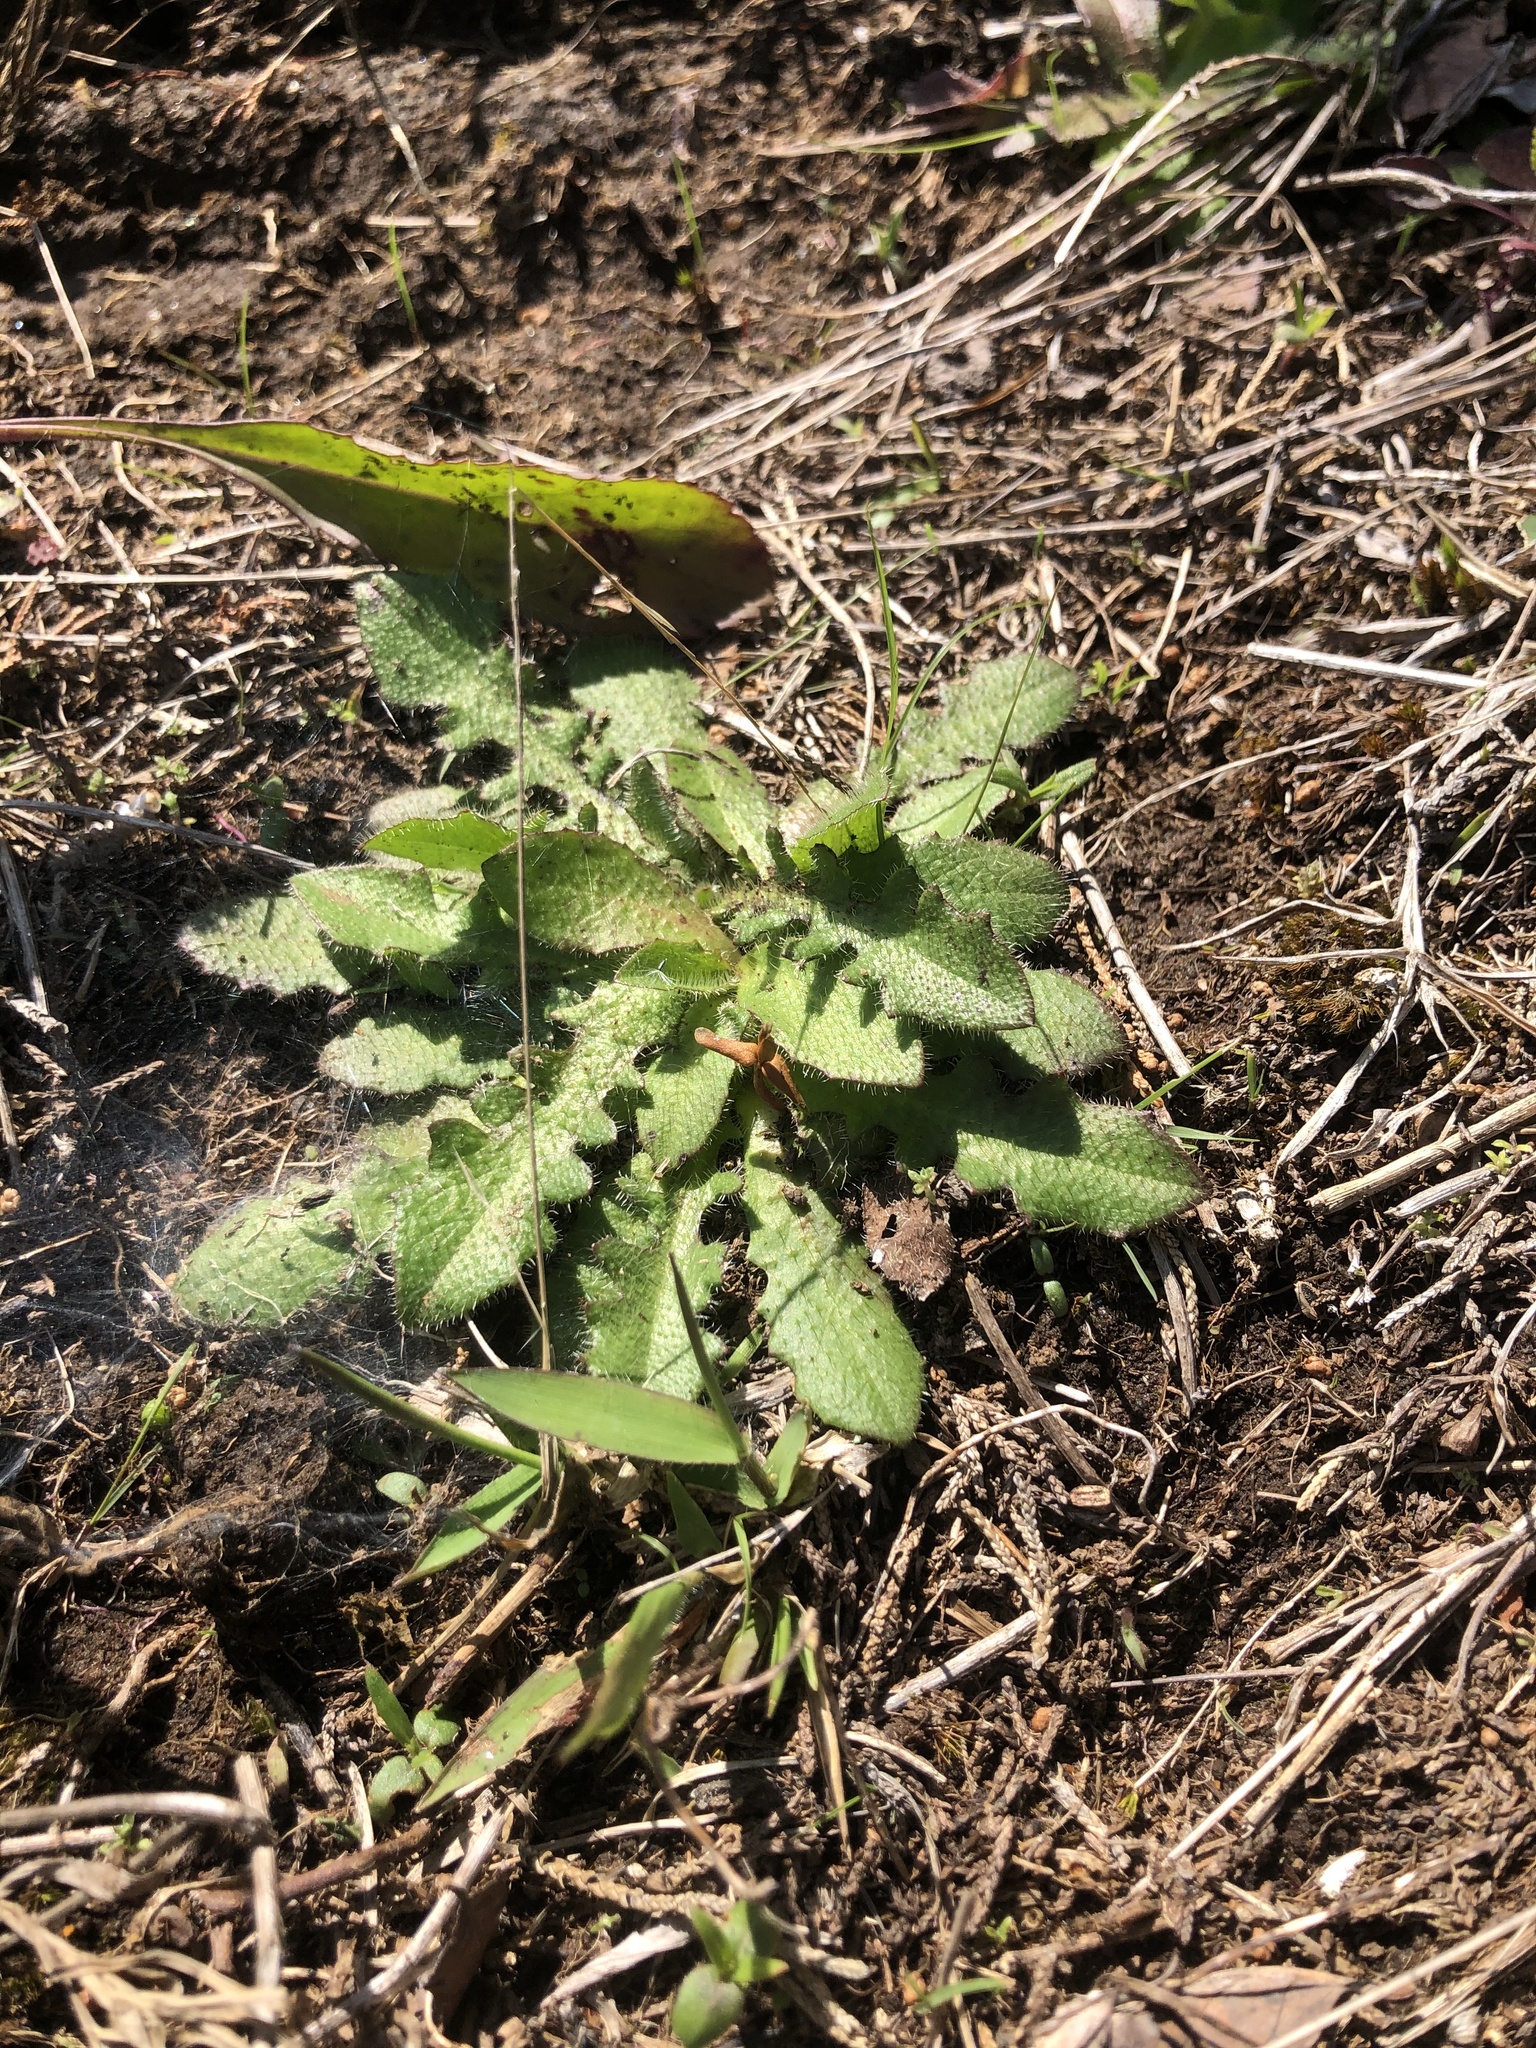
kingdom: Plantae
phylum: Tracheophyta
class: Magnoliopsida
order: Brassicales
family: Brassicaceae
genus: Arabis
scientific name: Arabis adpressipilis
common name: Soft-haired rockcress
